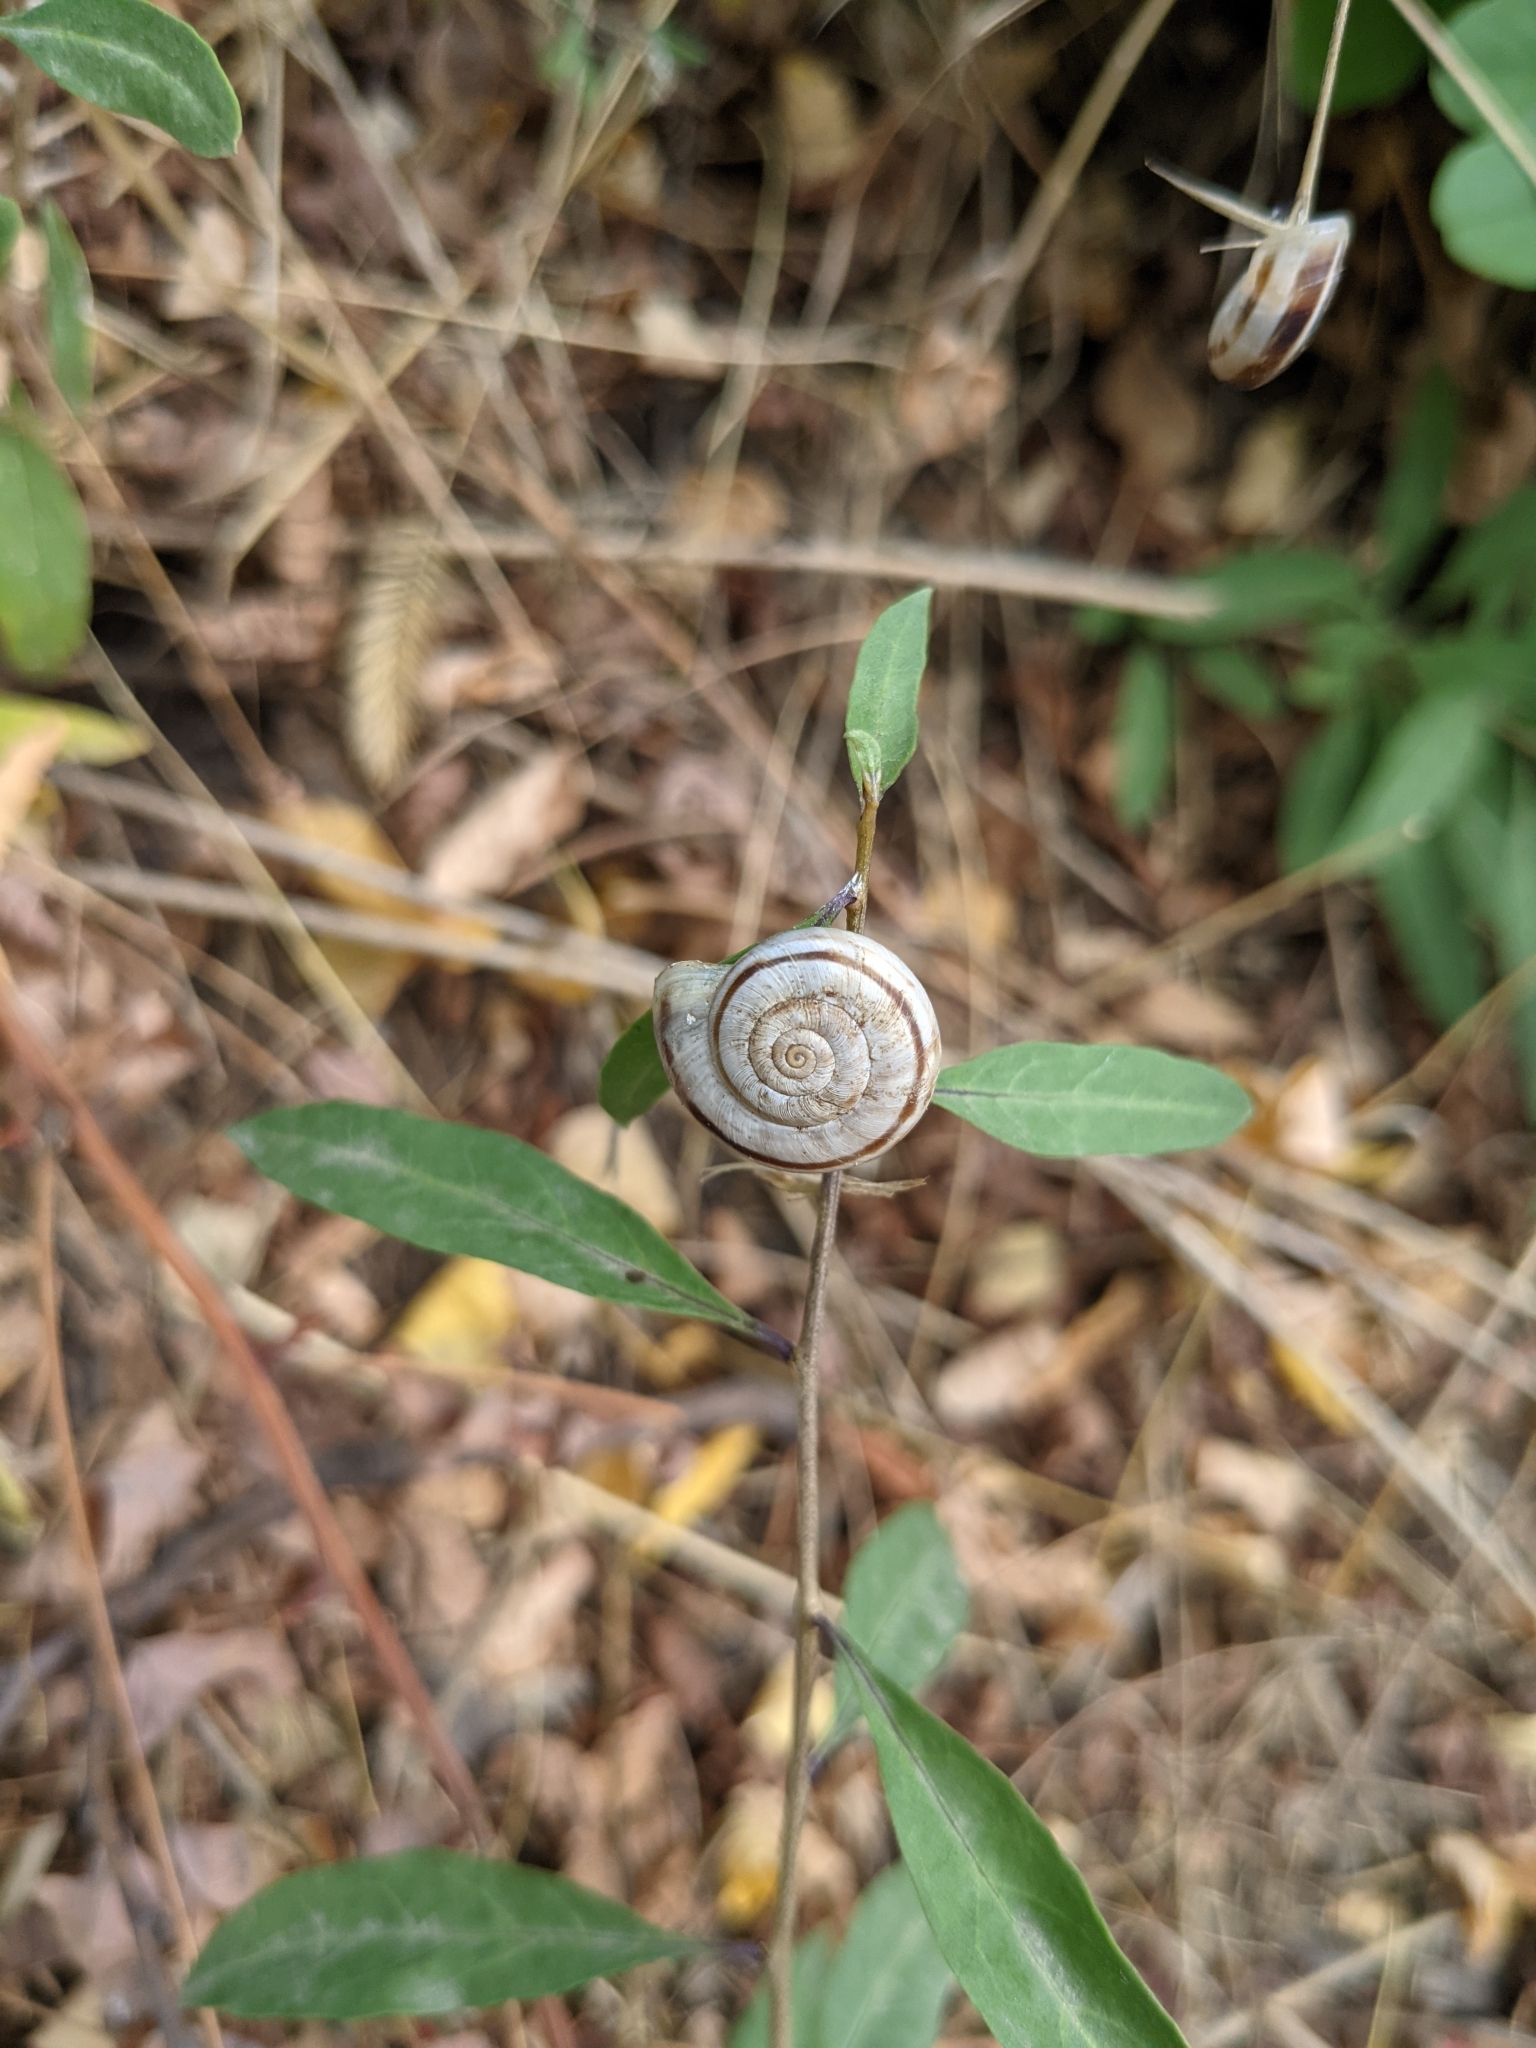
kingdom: Animalia
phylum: Mollusca
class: Gastropoda
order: Stylommatophora
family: Geomitridae
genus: Xerolenta
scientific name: Xerolenta obvia
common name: White heath snail
